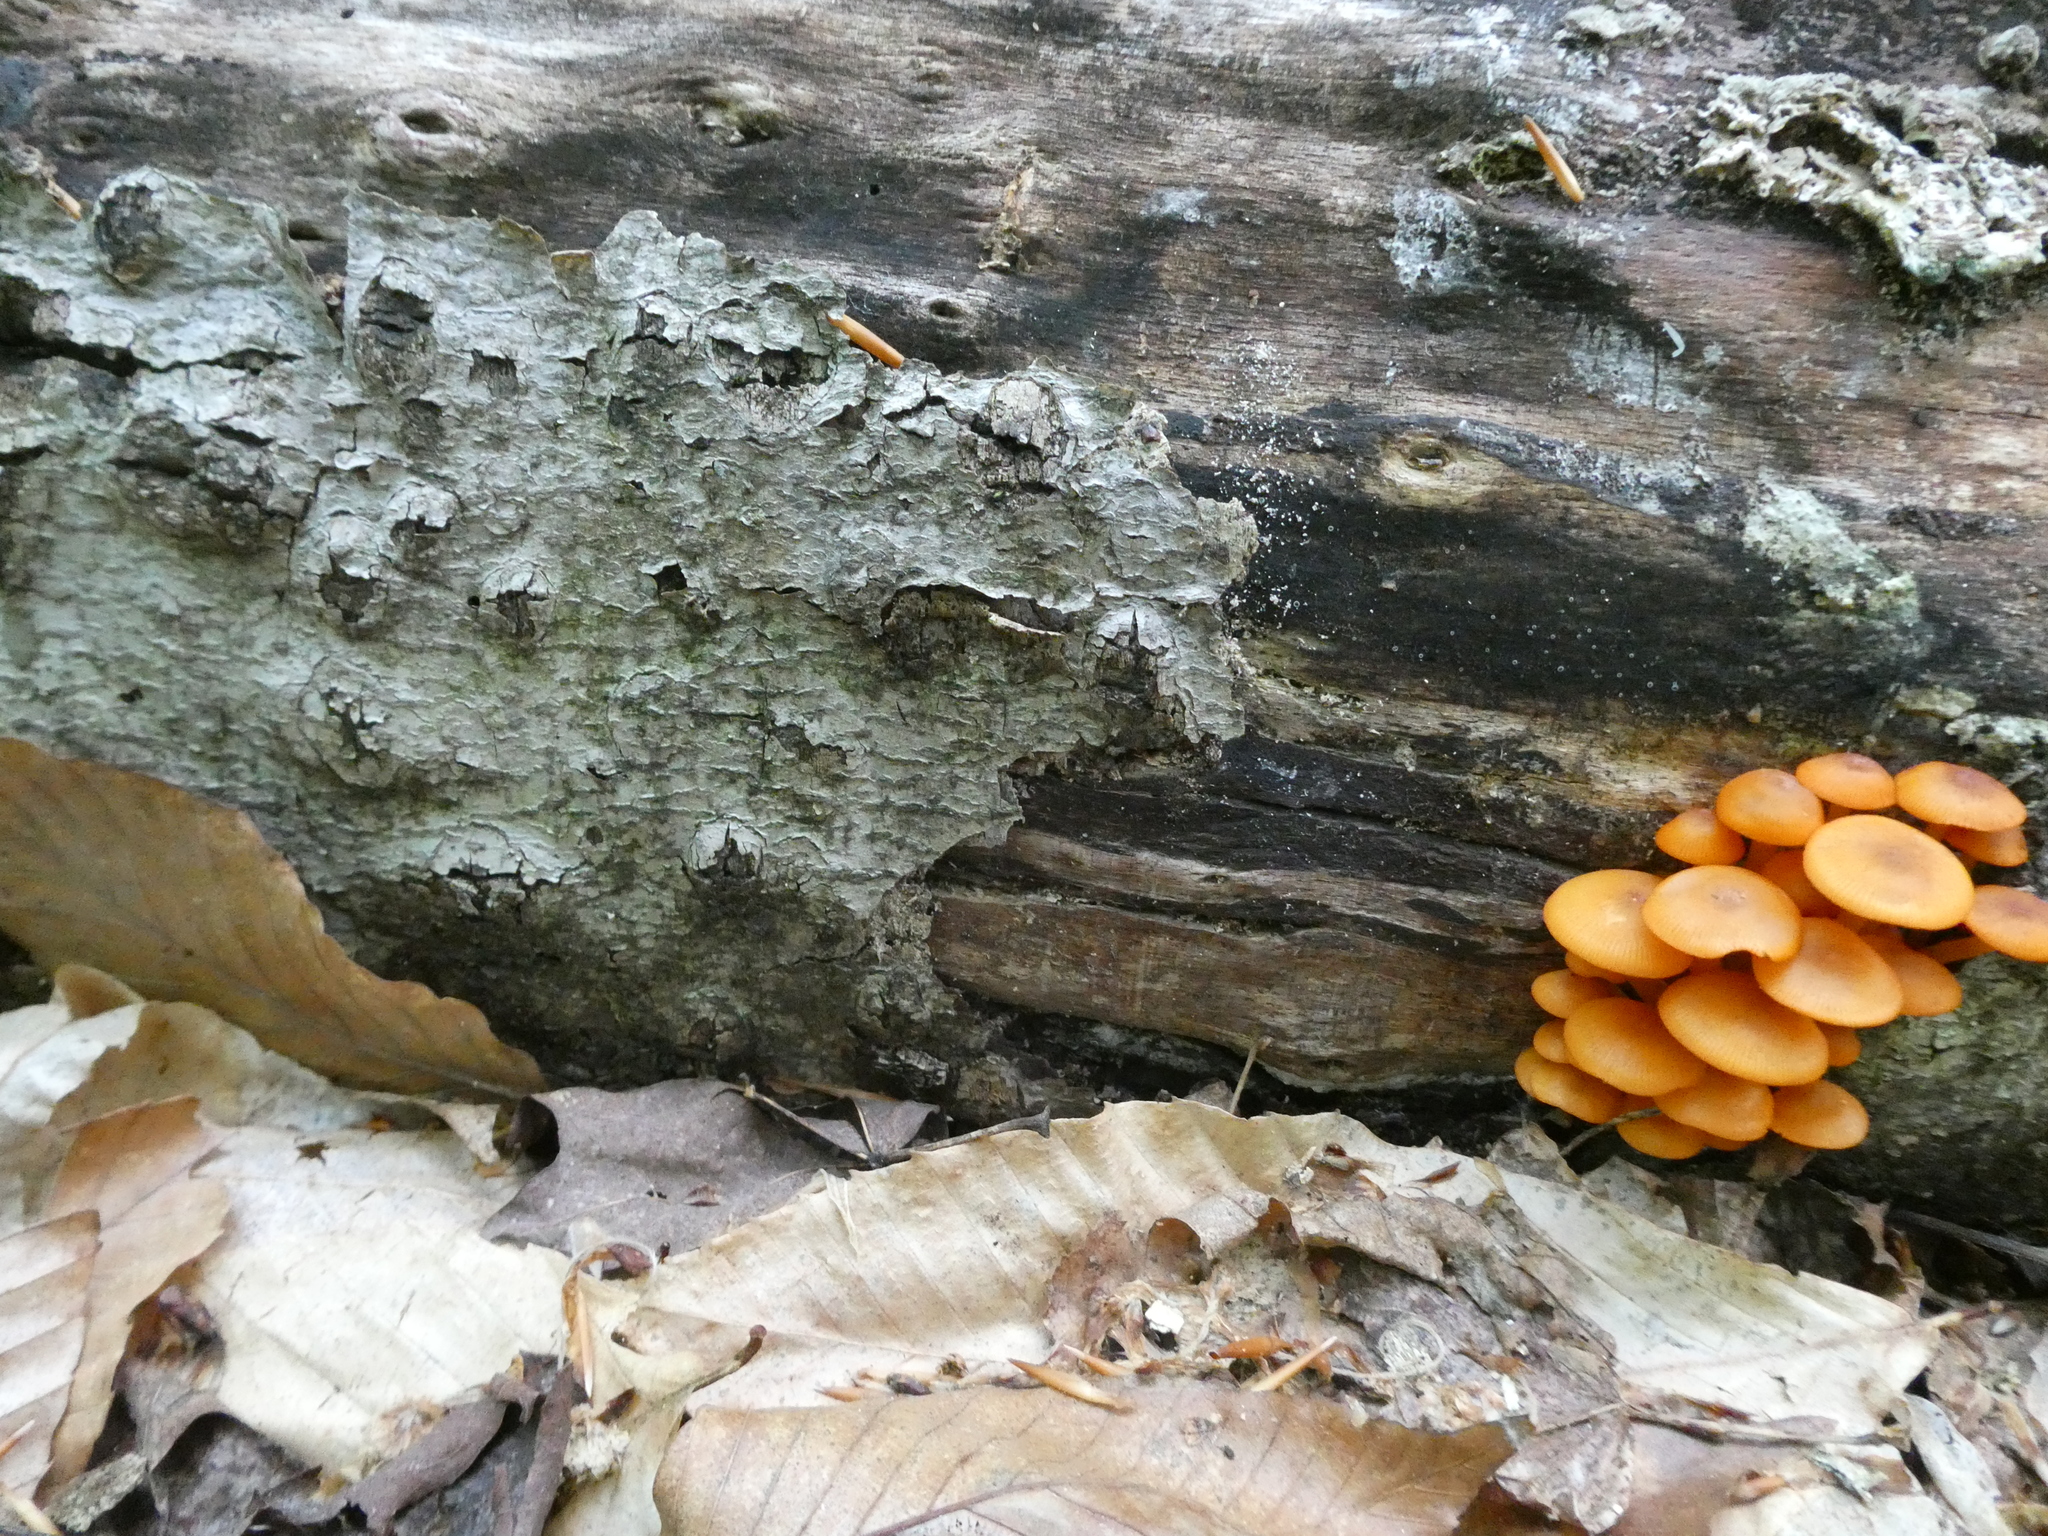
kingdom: Plantae
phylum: Tracheophyta
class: Magnoliopsida
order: Fagales
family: Fagaceae
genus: Fagus
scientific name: Fagus grandifolia
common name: American beech
